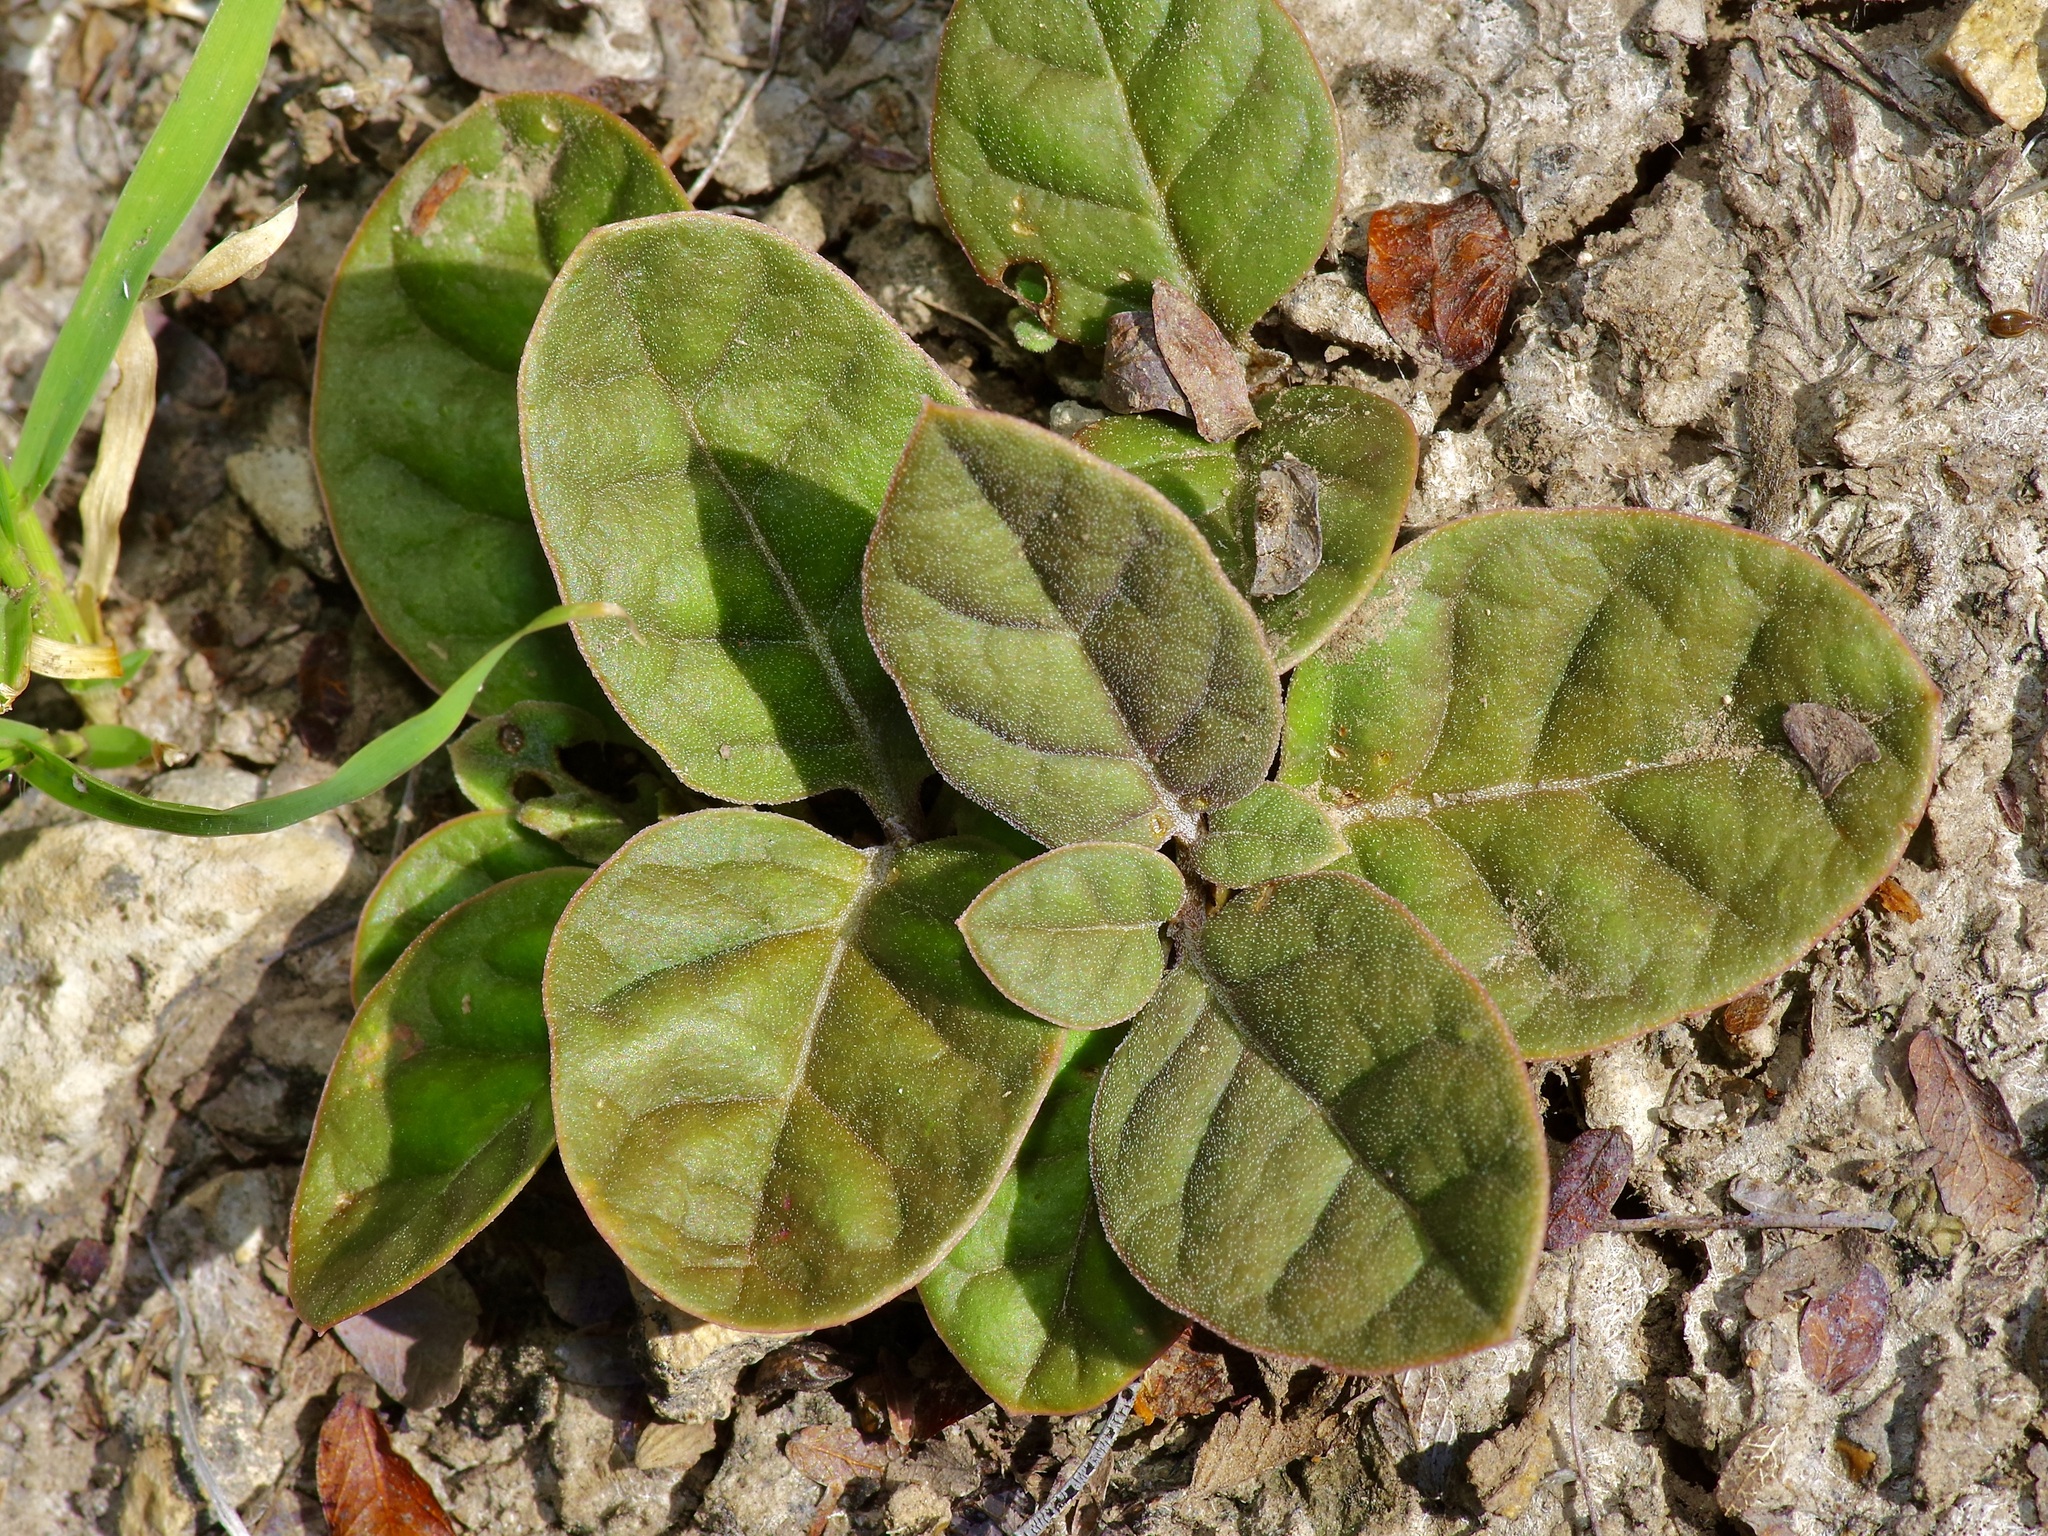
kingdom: Plantae
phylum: Tracheophyta
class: Magnoliopsida
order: Caryophyllales
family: Nyctaginaceae
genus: Acleisanthes
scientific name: Acleisanthes anisophylla
